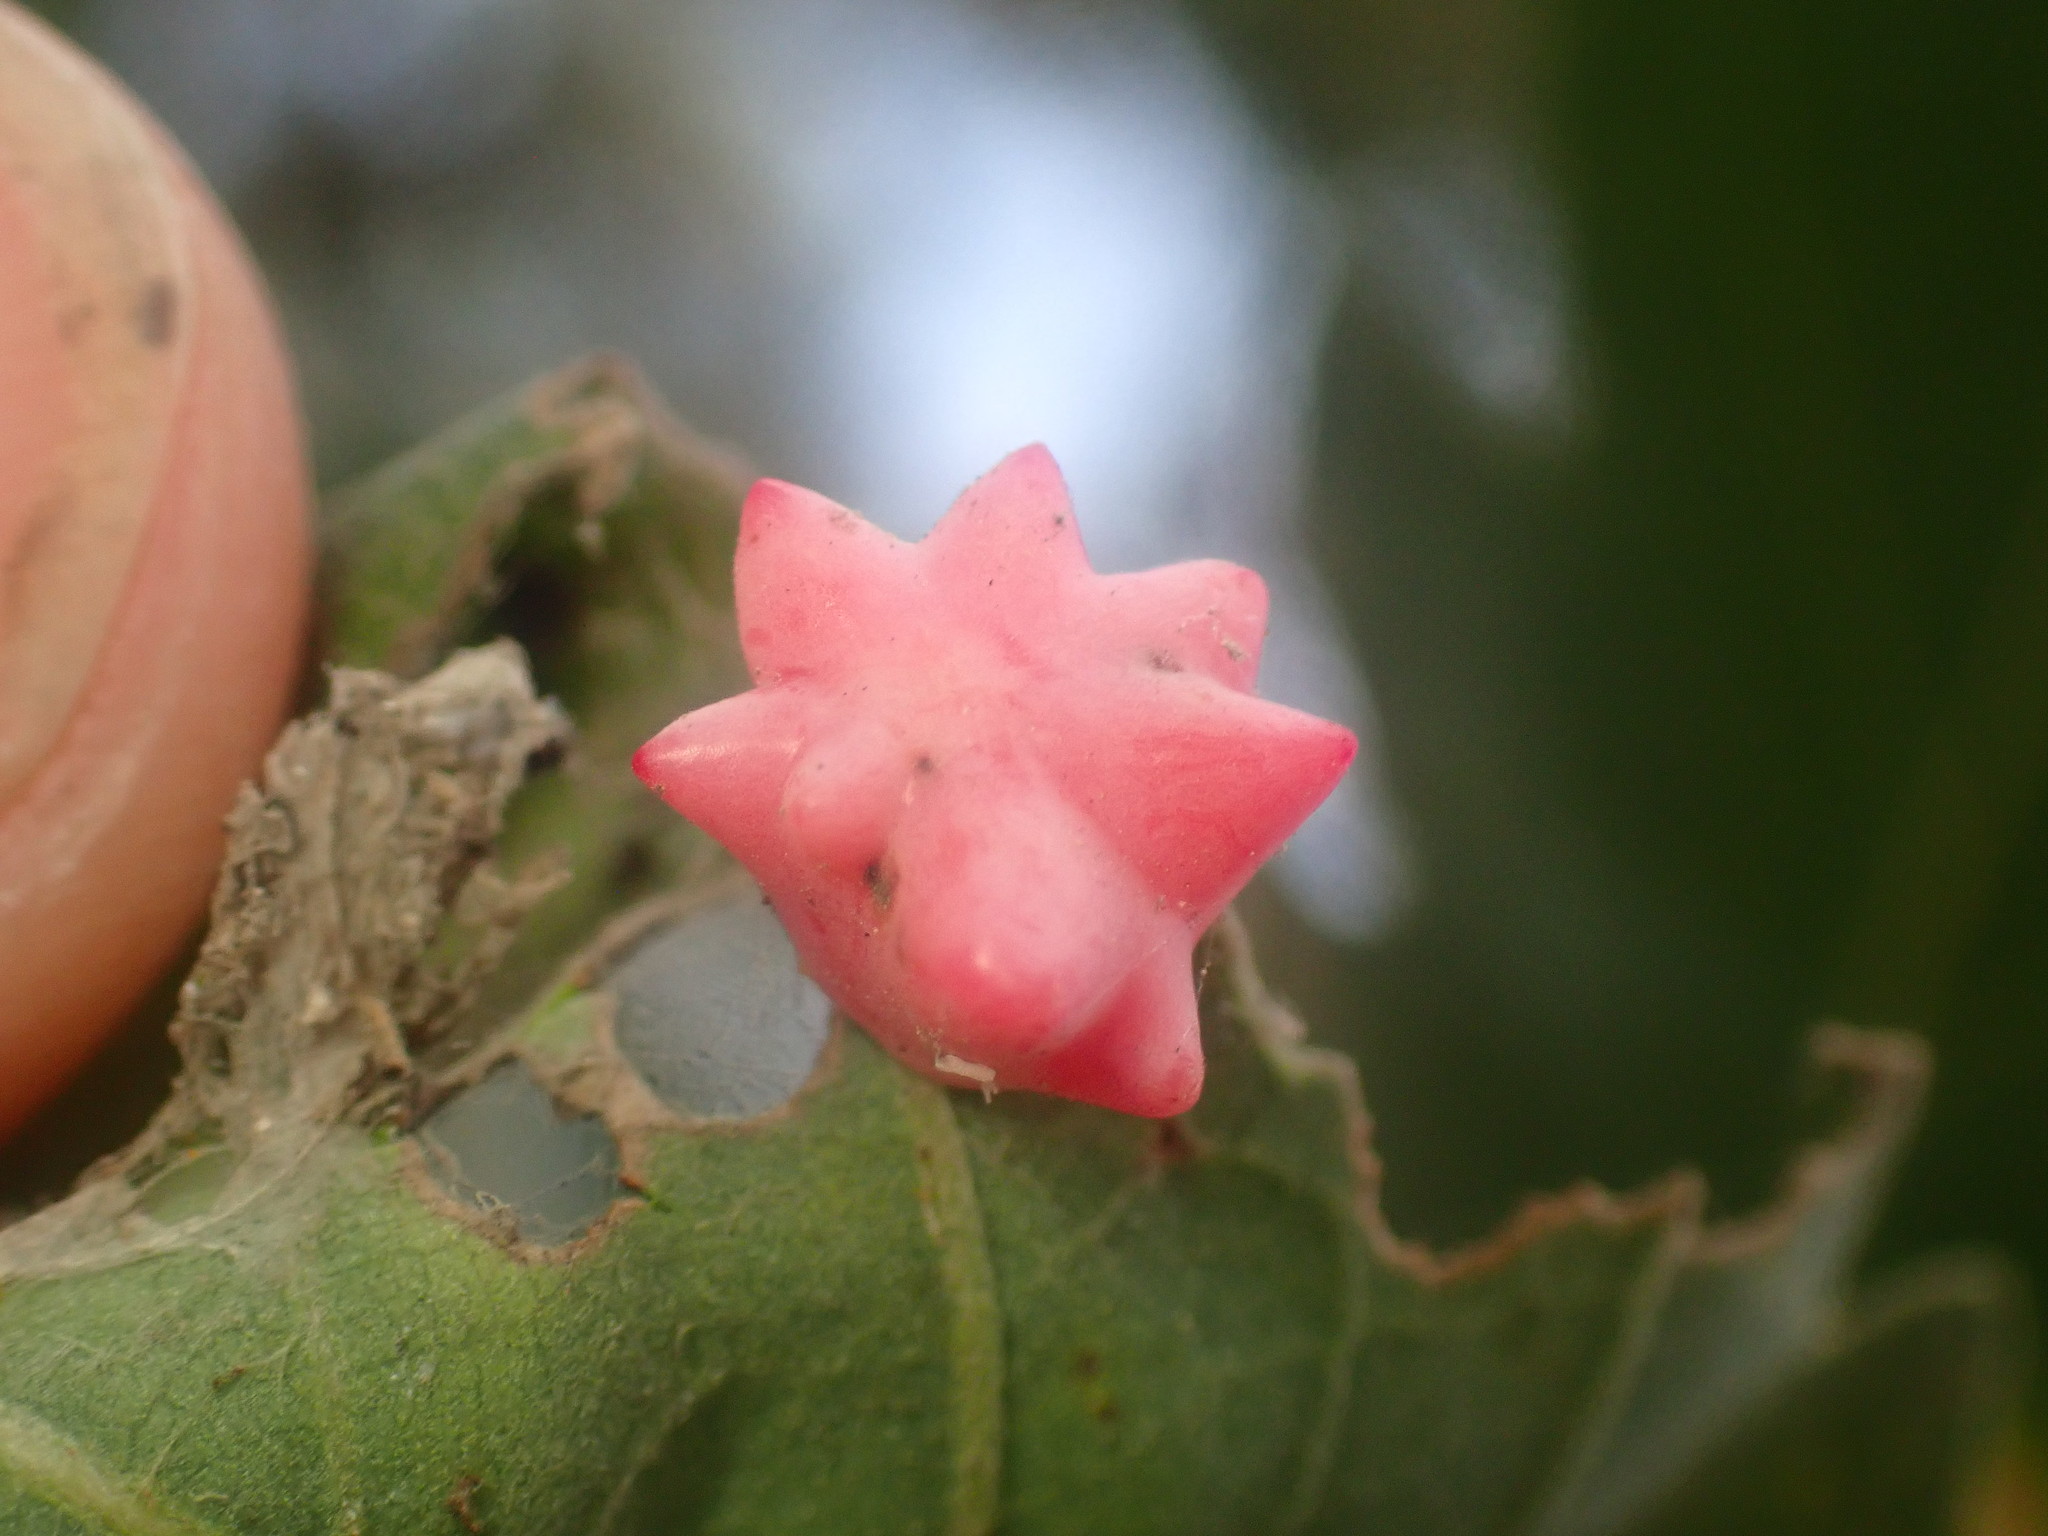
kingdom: Animalia
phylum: Arthropoda
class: Insecta
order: Hymenoptera
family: Cynipidae
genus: Cynips
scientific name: Cynips douglasi
